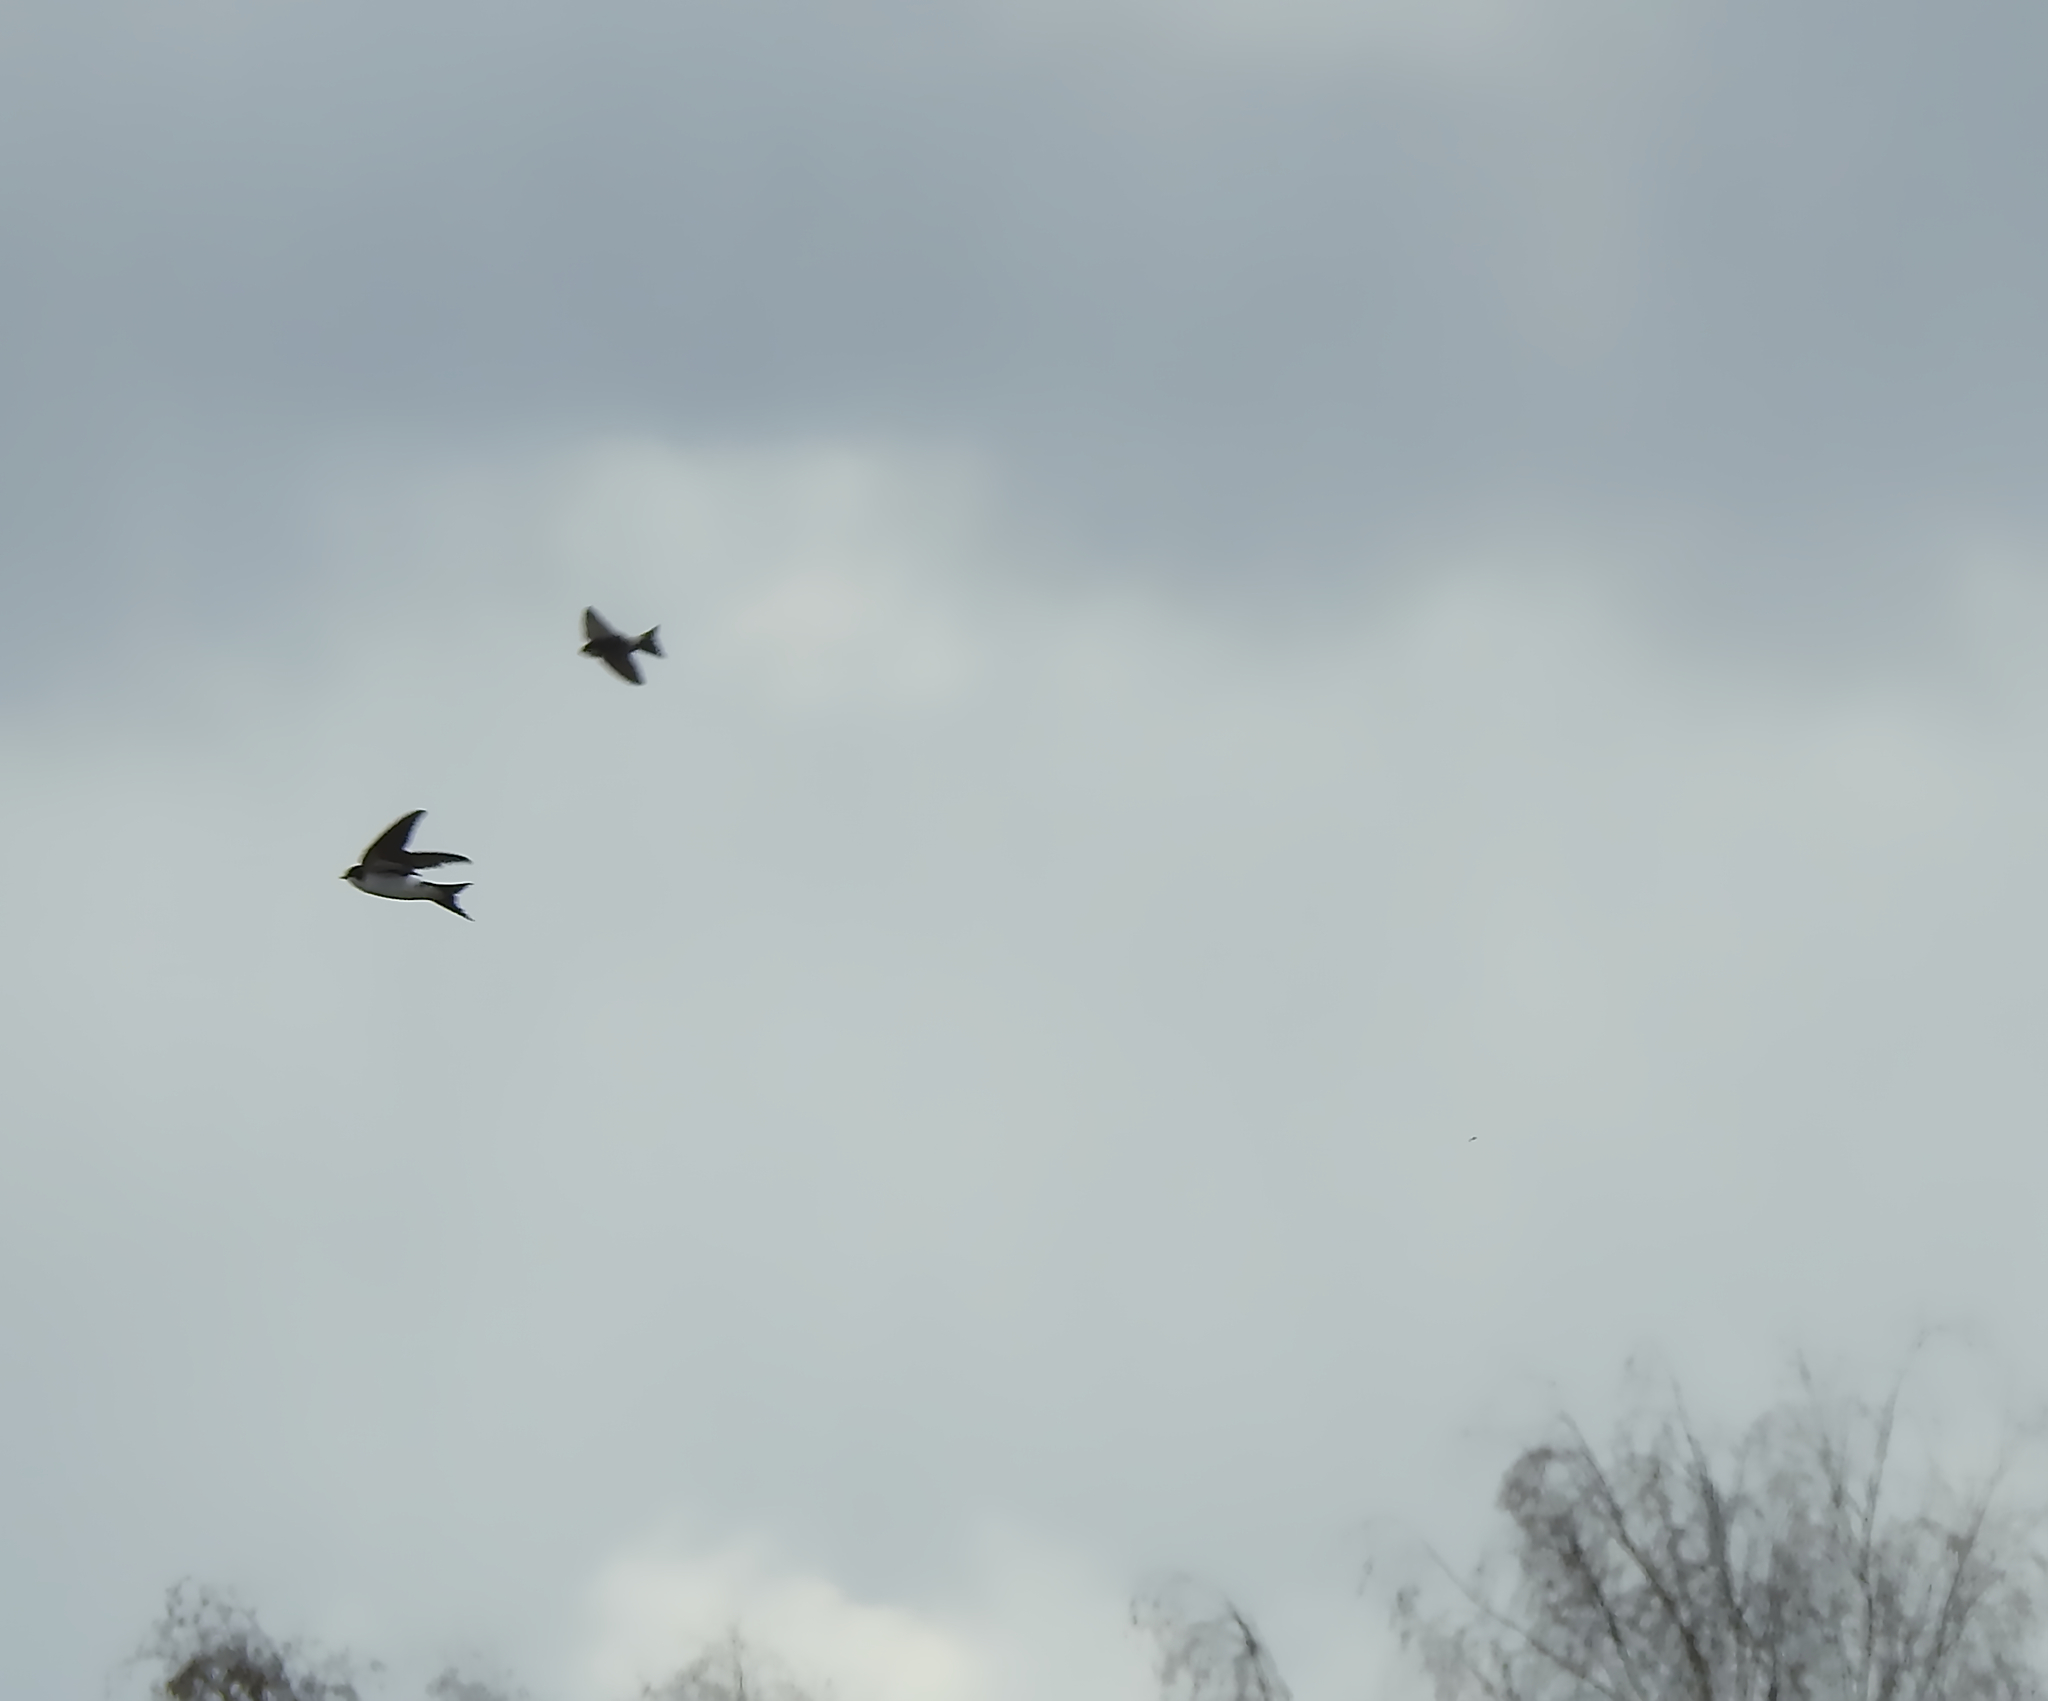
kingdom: Animalia
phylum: Chordata
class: Aves
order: Passeriformes
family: Hirundinidae
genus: Delichon
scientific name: Delichon urbicum
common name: Common house martin
